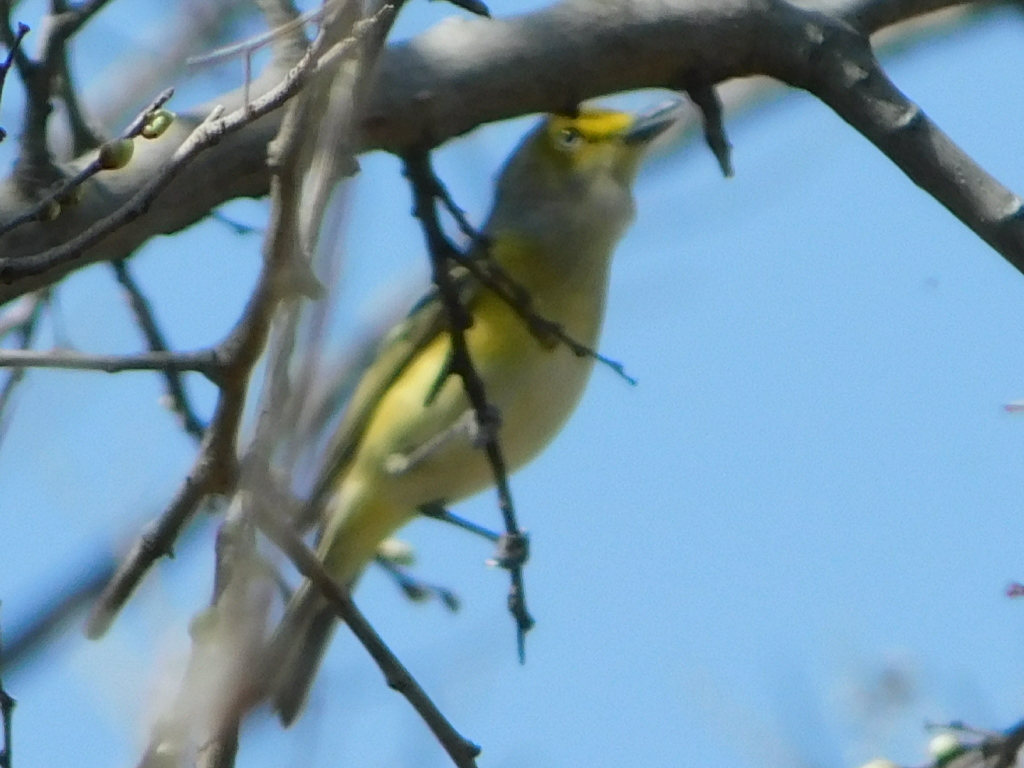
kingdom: Animalia
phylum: Chordata
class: Aves
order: Passeriformes
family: Vireonidae
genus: Vireo
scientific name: Vireo griseus
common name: White-eyed vireo
